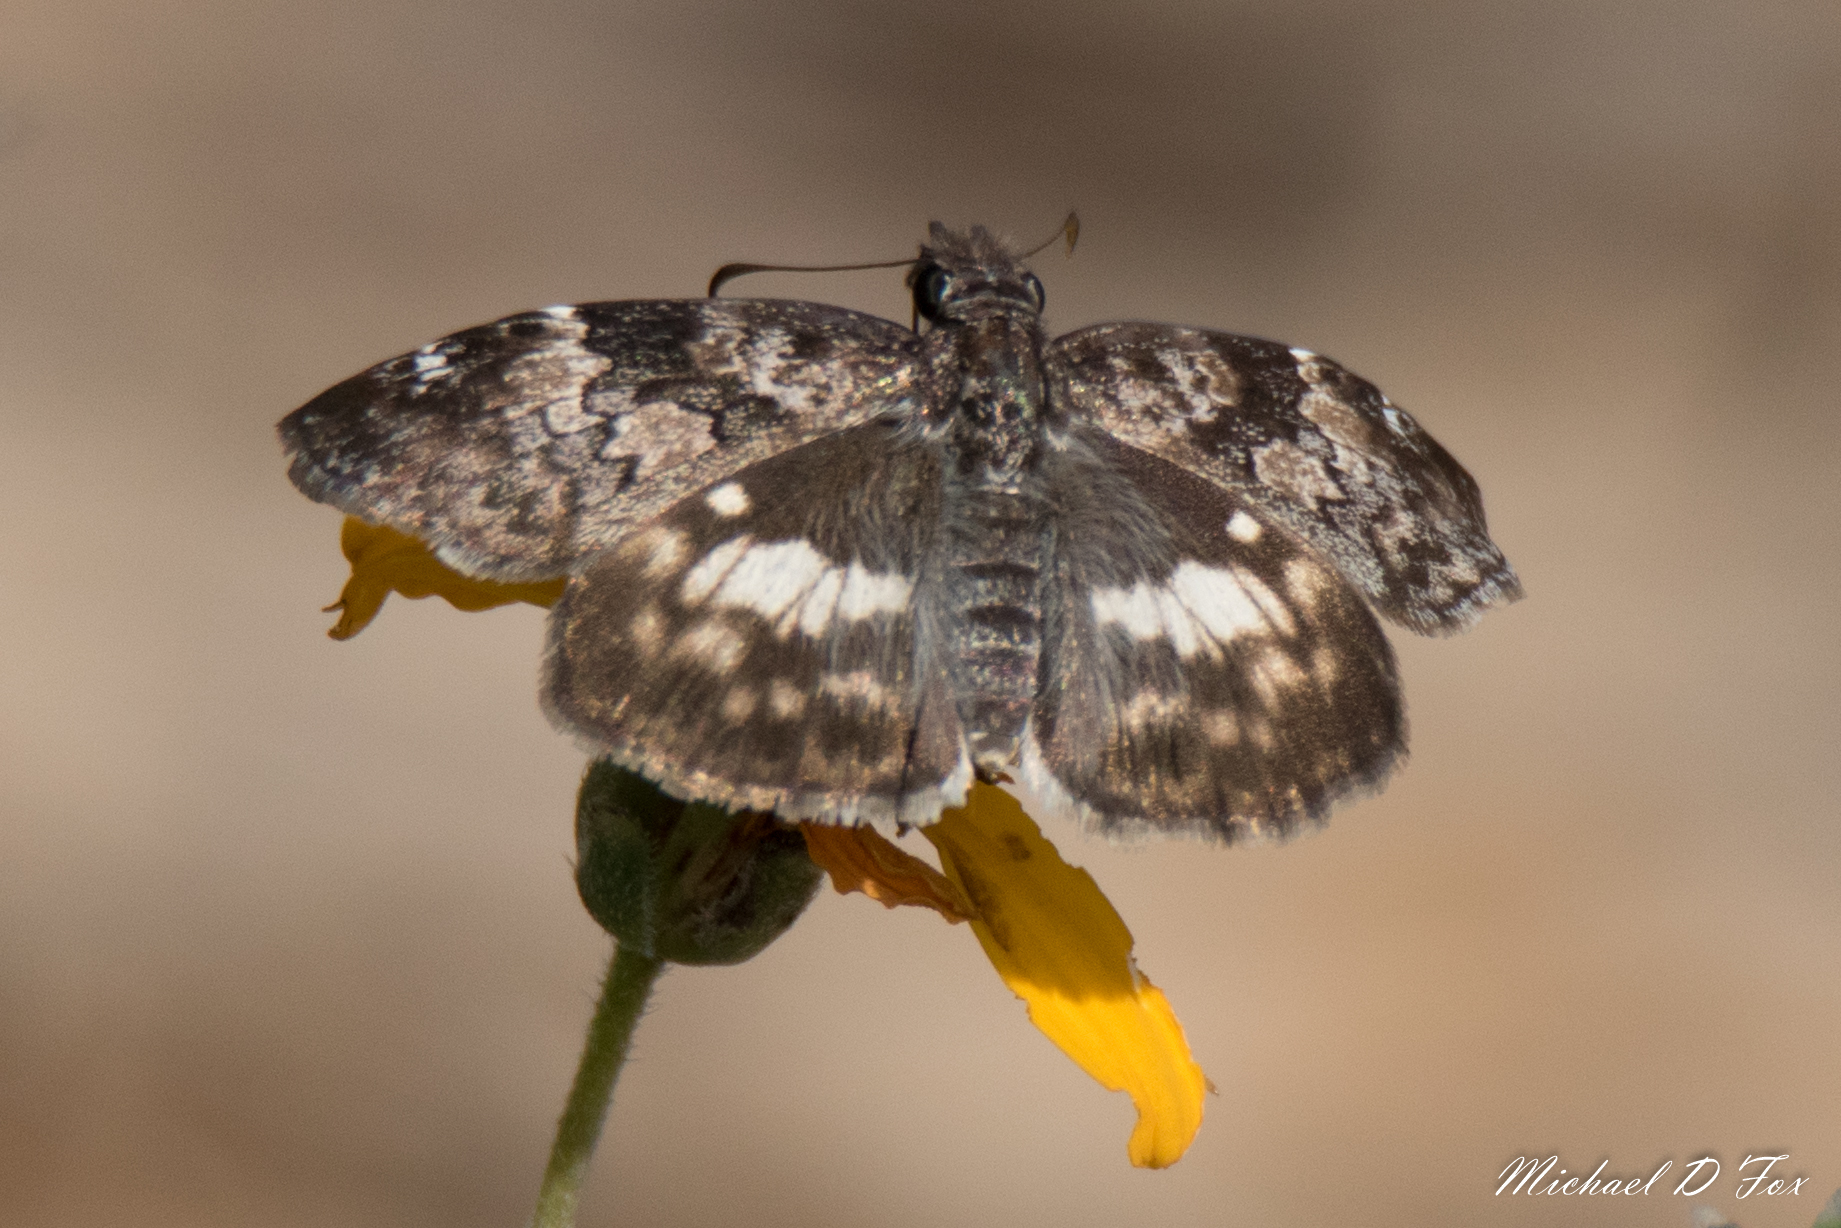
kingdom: Animalia
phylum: Arthropoda
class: Insecta
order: Lepidoptera
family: Hesperiidae
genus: Chiothion
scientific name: Chiothion georgina
